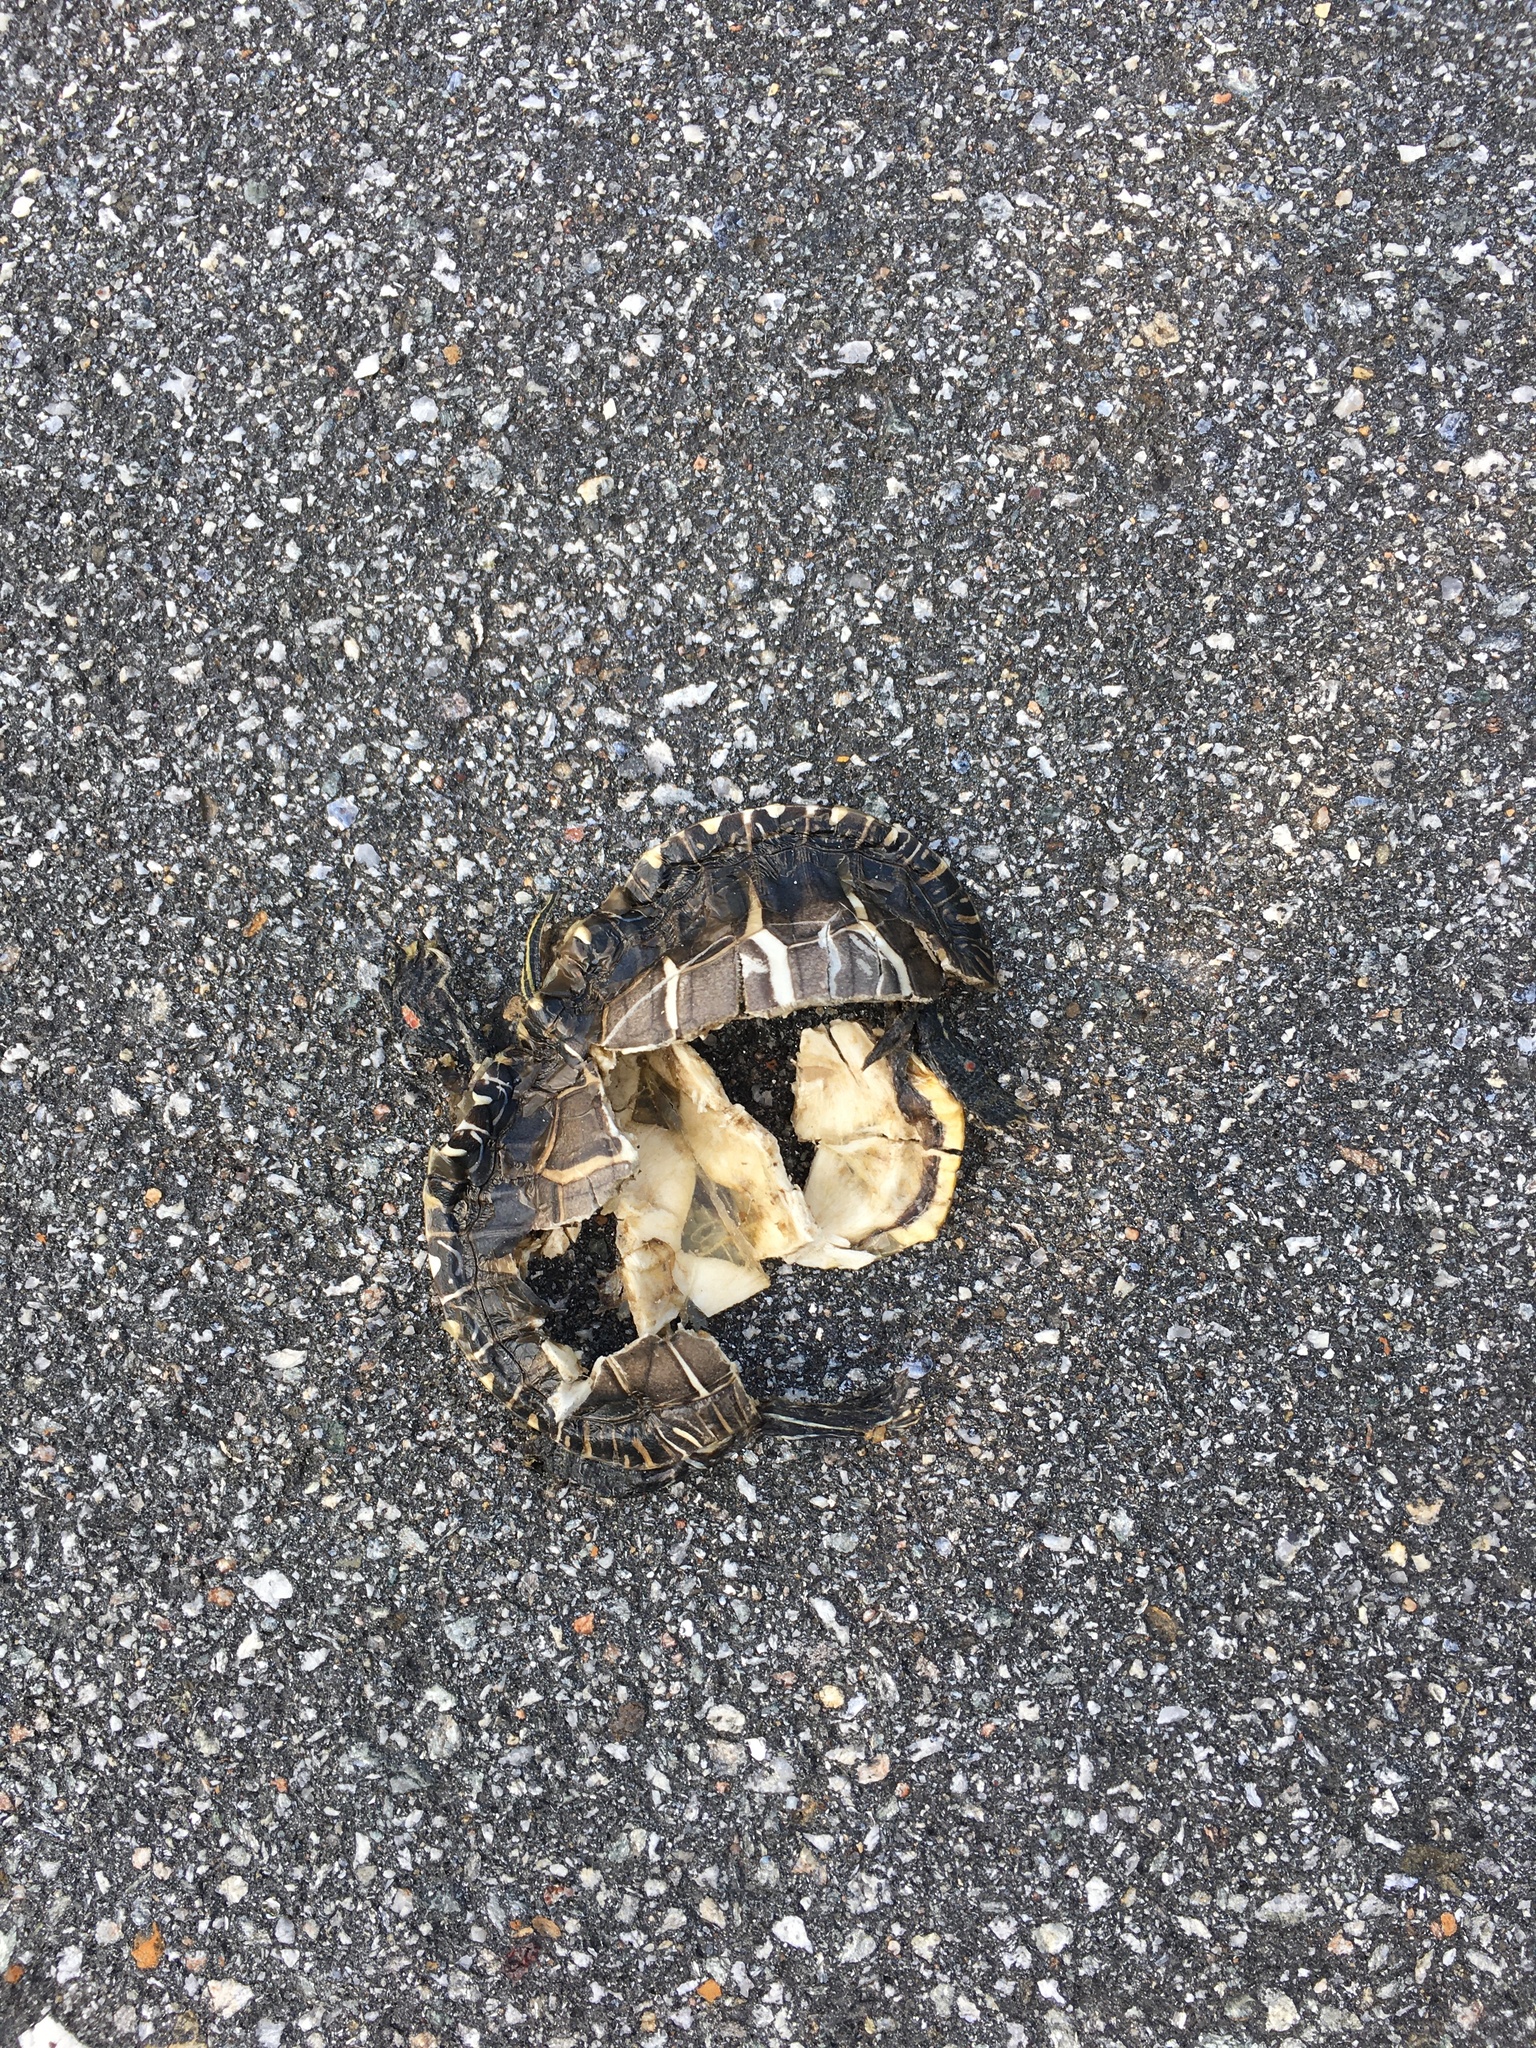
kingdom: Animalia
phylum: Chordata
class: Testudines
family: Emydidae
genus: Chrysemys
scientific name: Chrysemys picta
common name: Painted turtle
